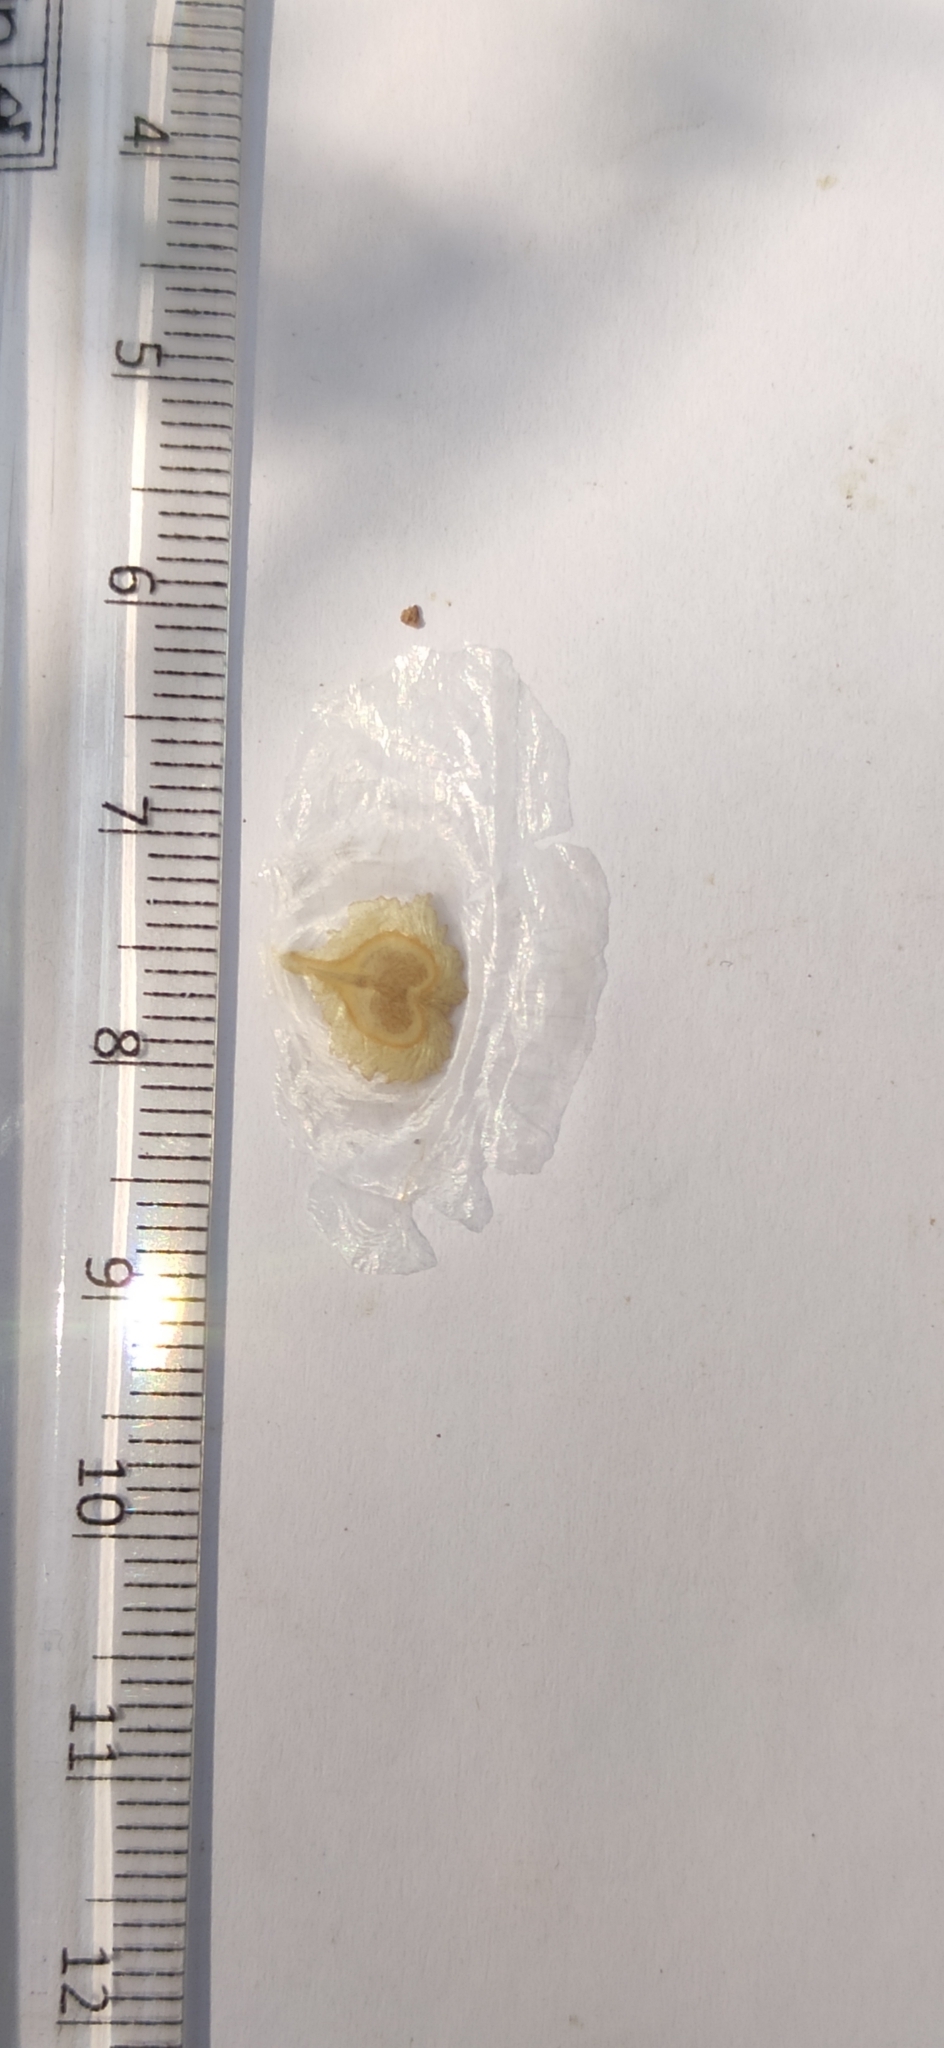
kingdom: Plantae
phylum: Tracheophyta
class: Magnoliopsida
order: Lamiales
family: Bignoniaceae
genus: Spathodea
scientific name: Spathodea campanulata
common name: African tuliptree
